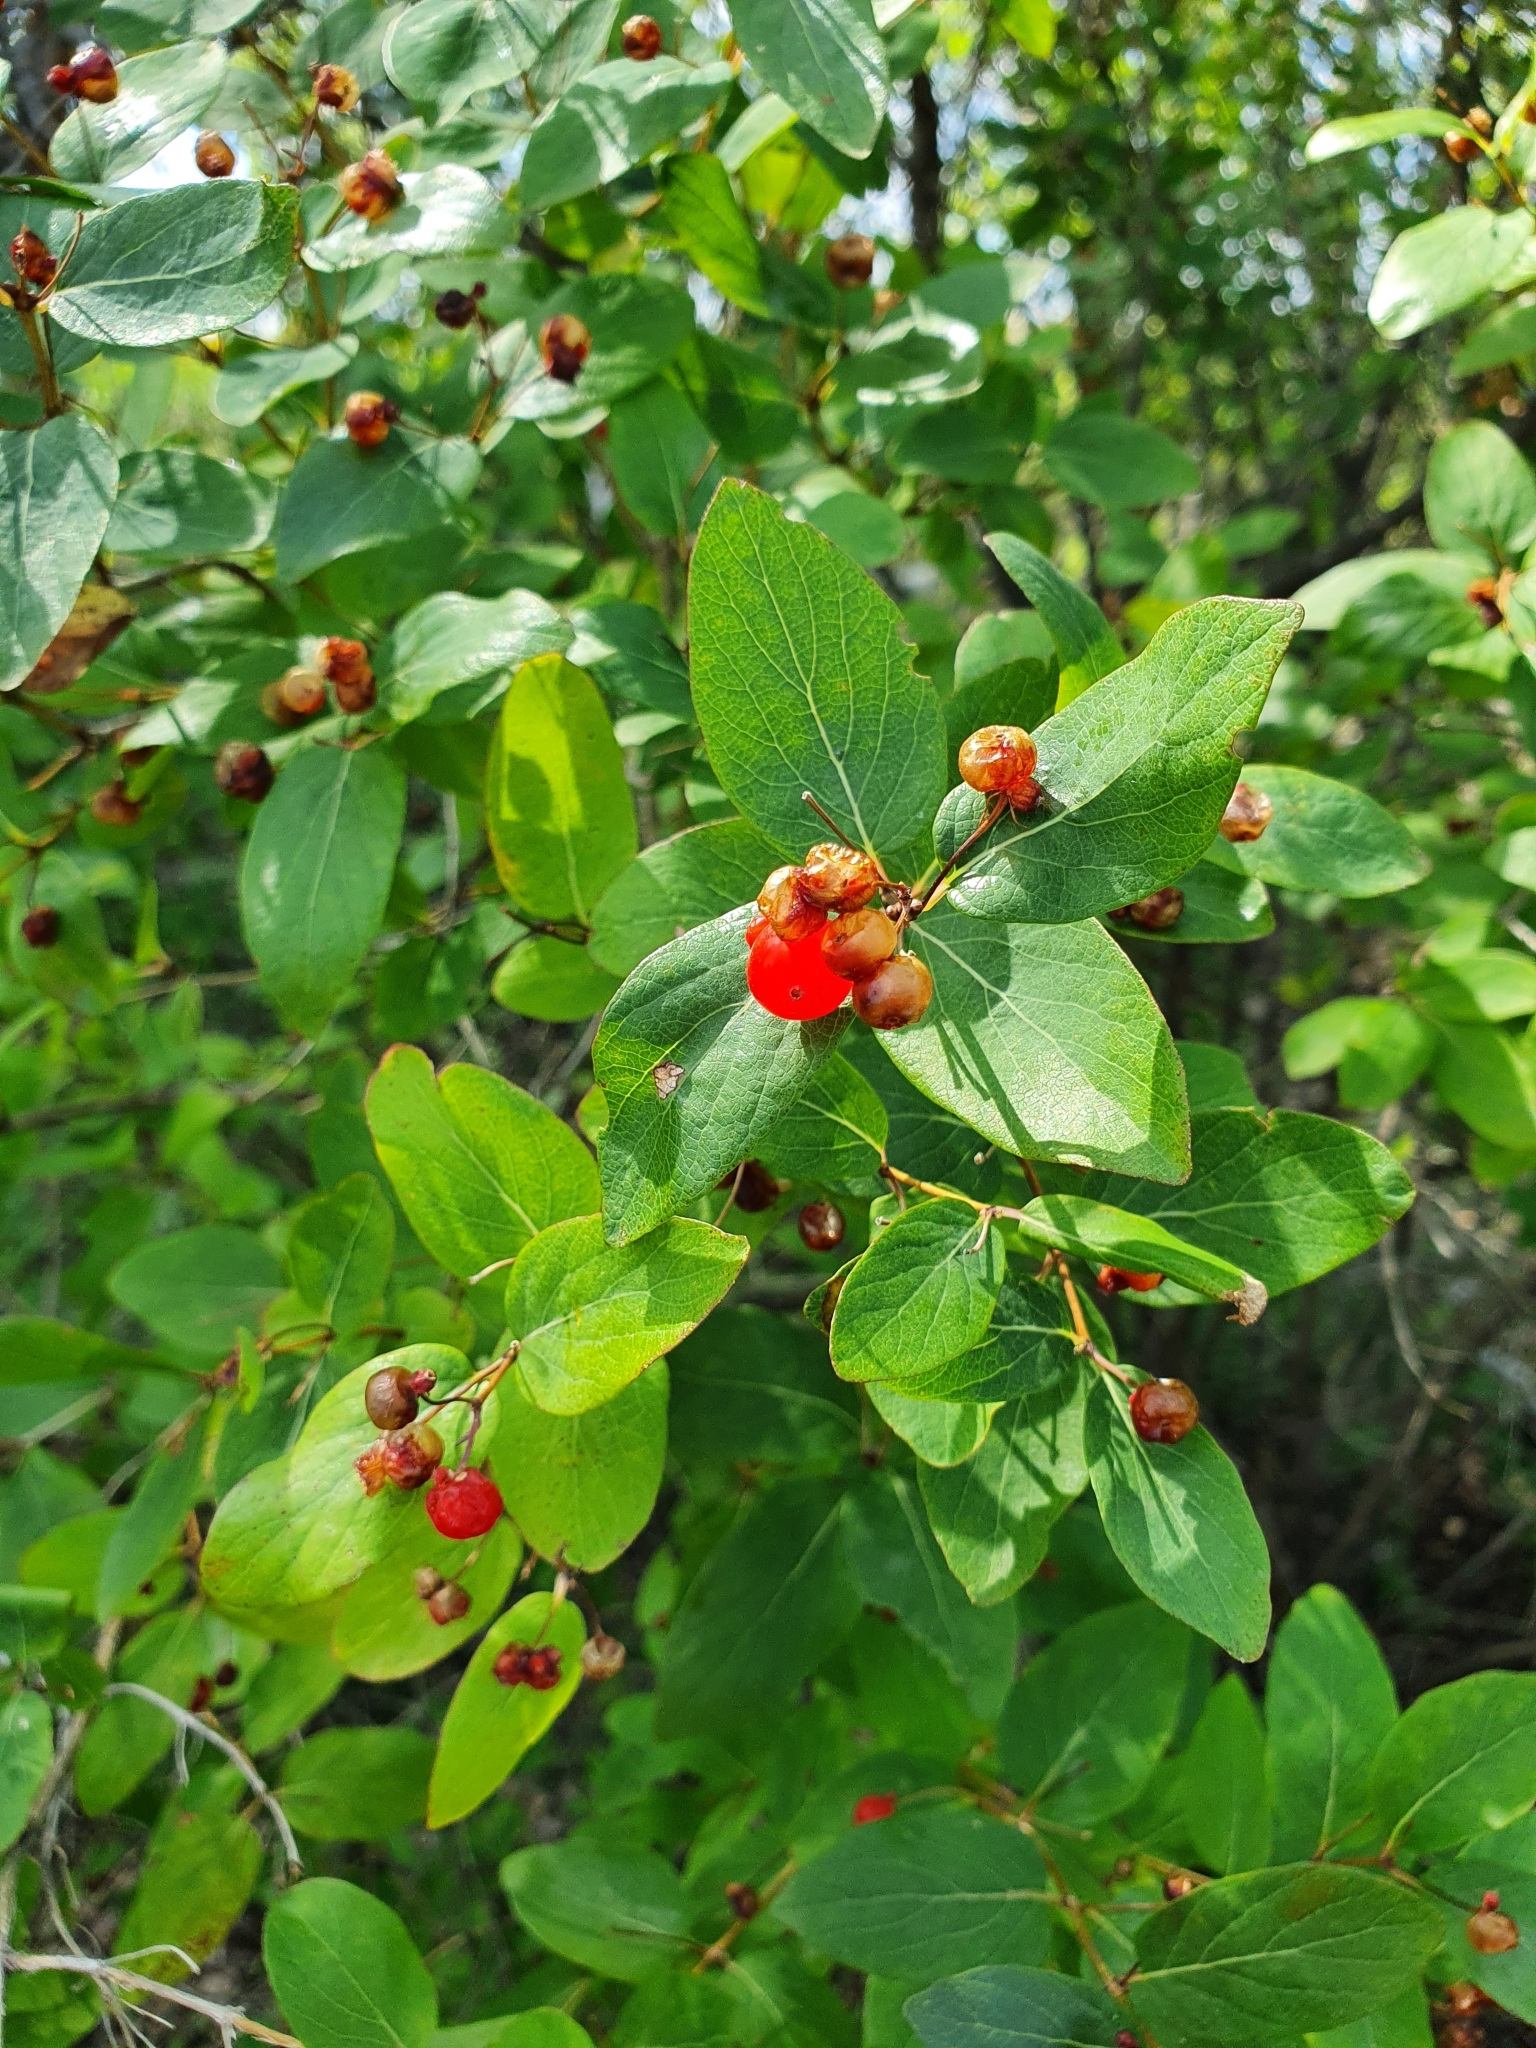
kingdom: Plantae
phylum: Tracheophyta
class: Magnoliopsida
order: Dipsacales
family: Caprifoliaceae
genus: Lonicera
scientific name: Lonicera tatarica
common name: Tatarian honeysuckle
